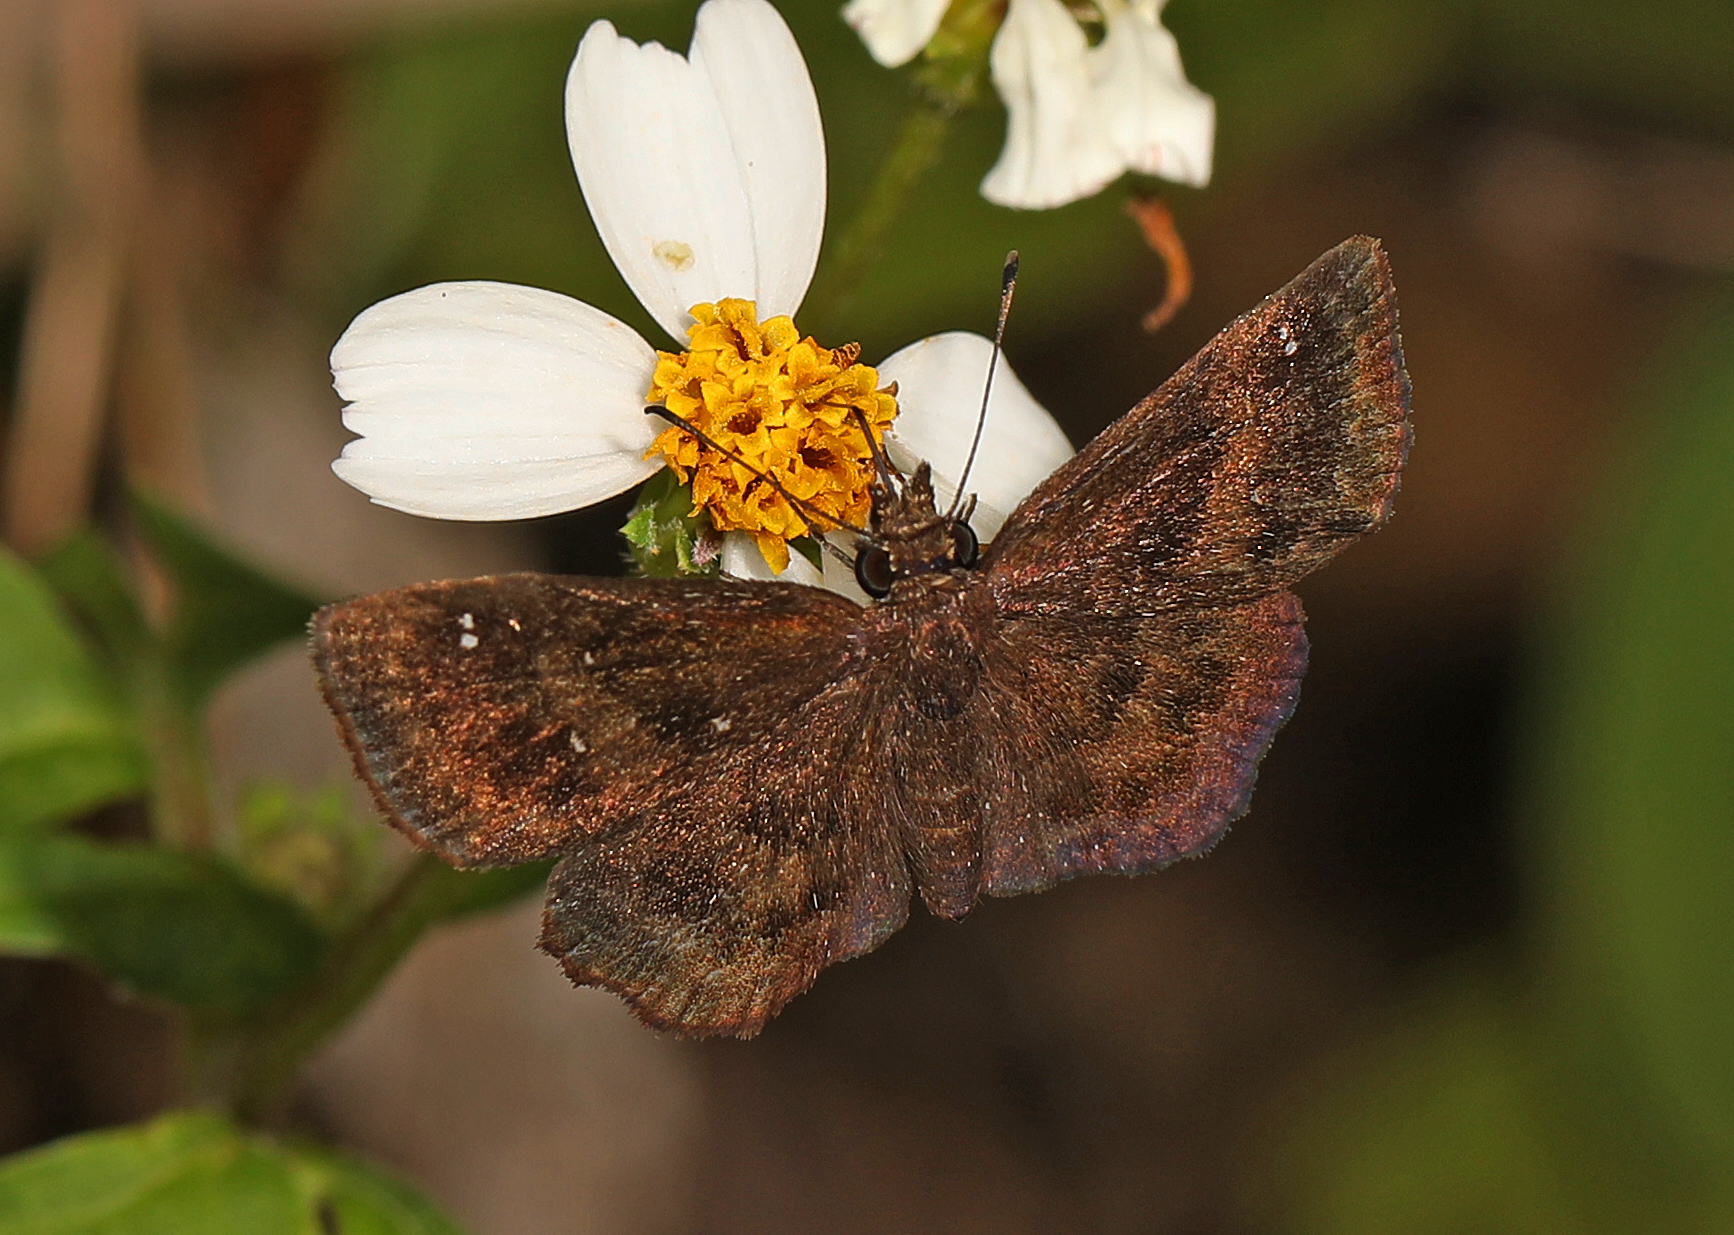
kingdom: Animalia
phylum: Arthropoda
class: Insecta
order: Lepidoptera
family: Hesperiidae
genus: Staphylus
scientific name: Staphylus mazans
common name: Mazans scallopwing
